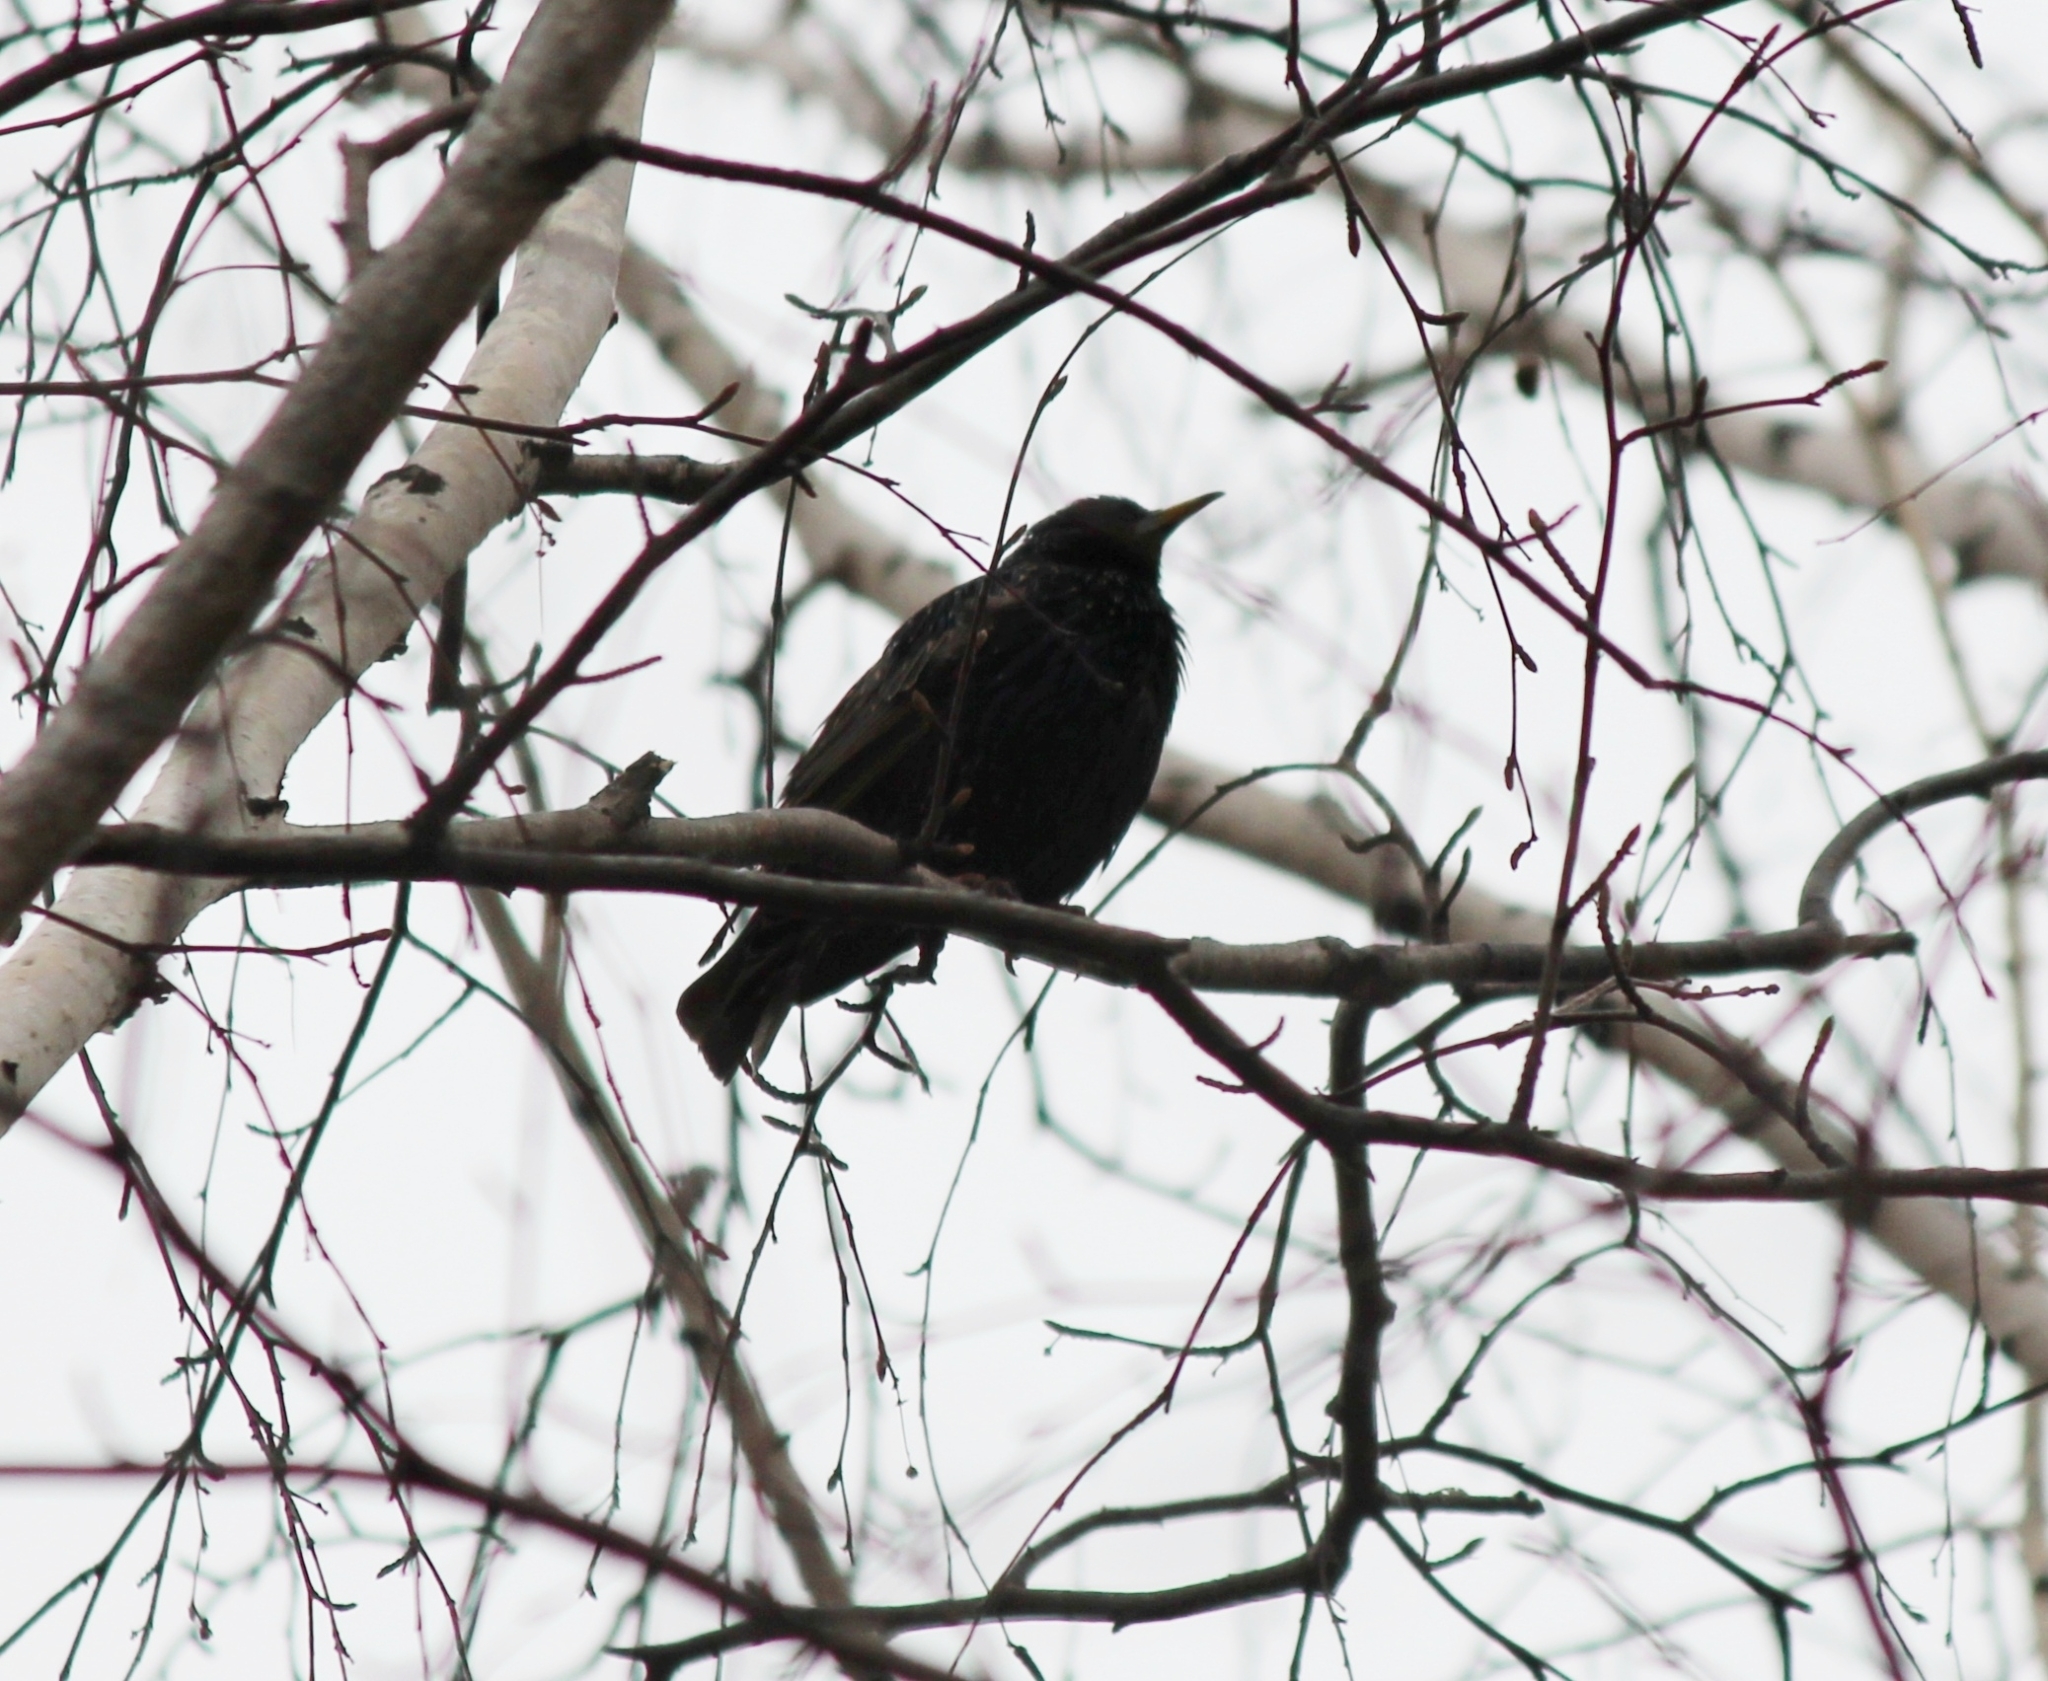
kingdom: Animalia
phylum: Chordata
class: Aves
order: Passeriformes
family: Sturnidae
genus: Sturnus
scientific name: Sturnus vulgaris
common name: Common starling
